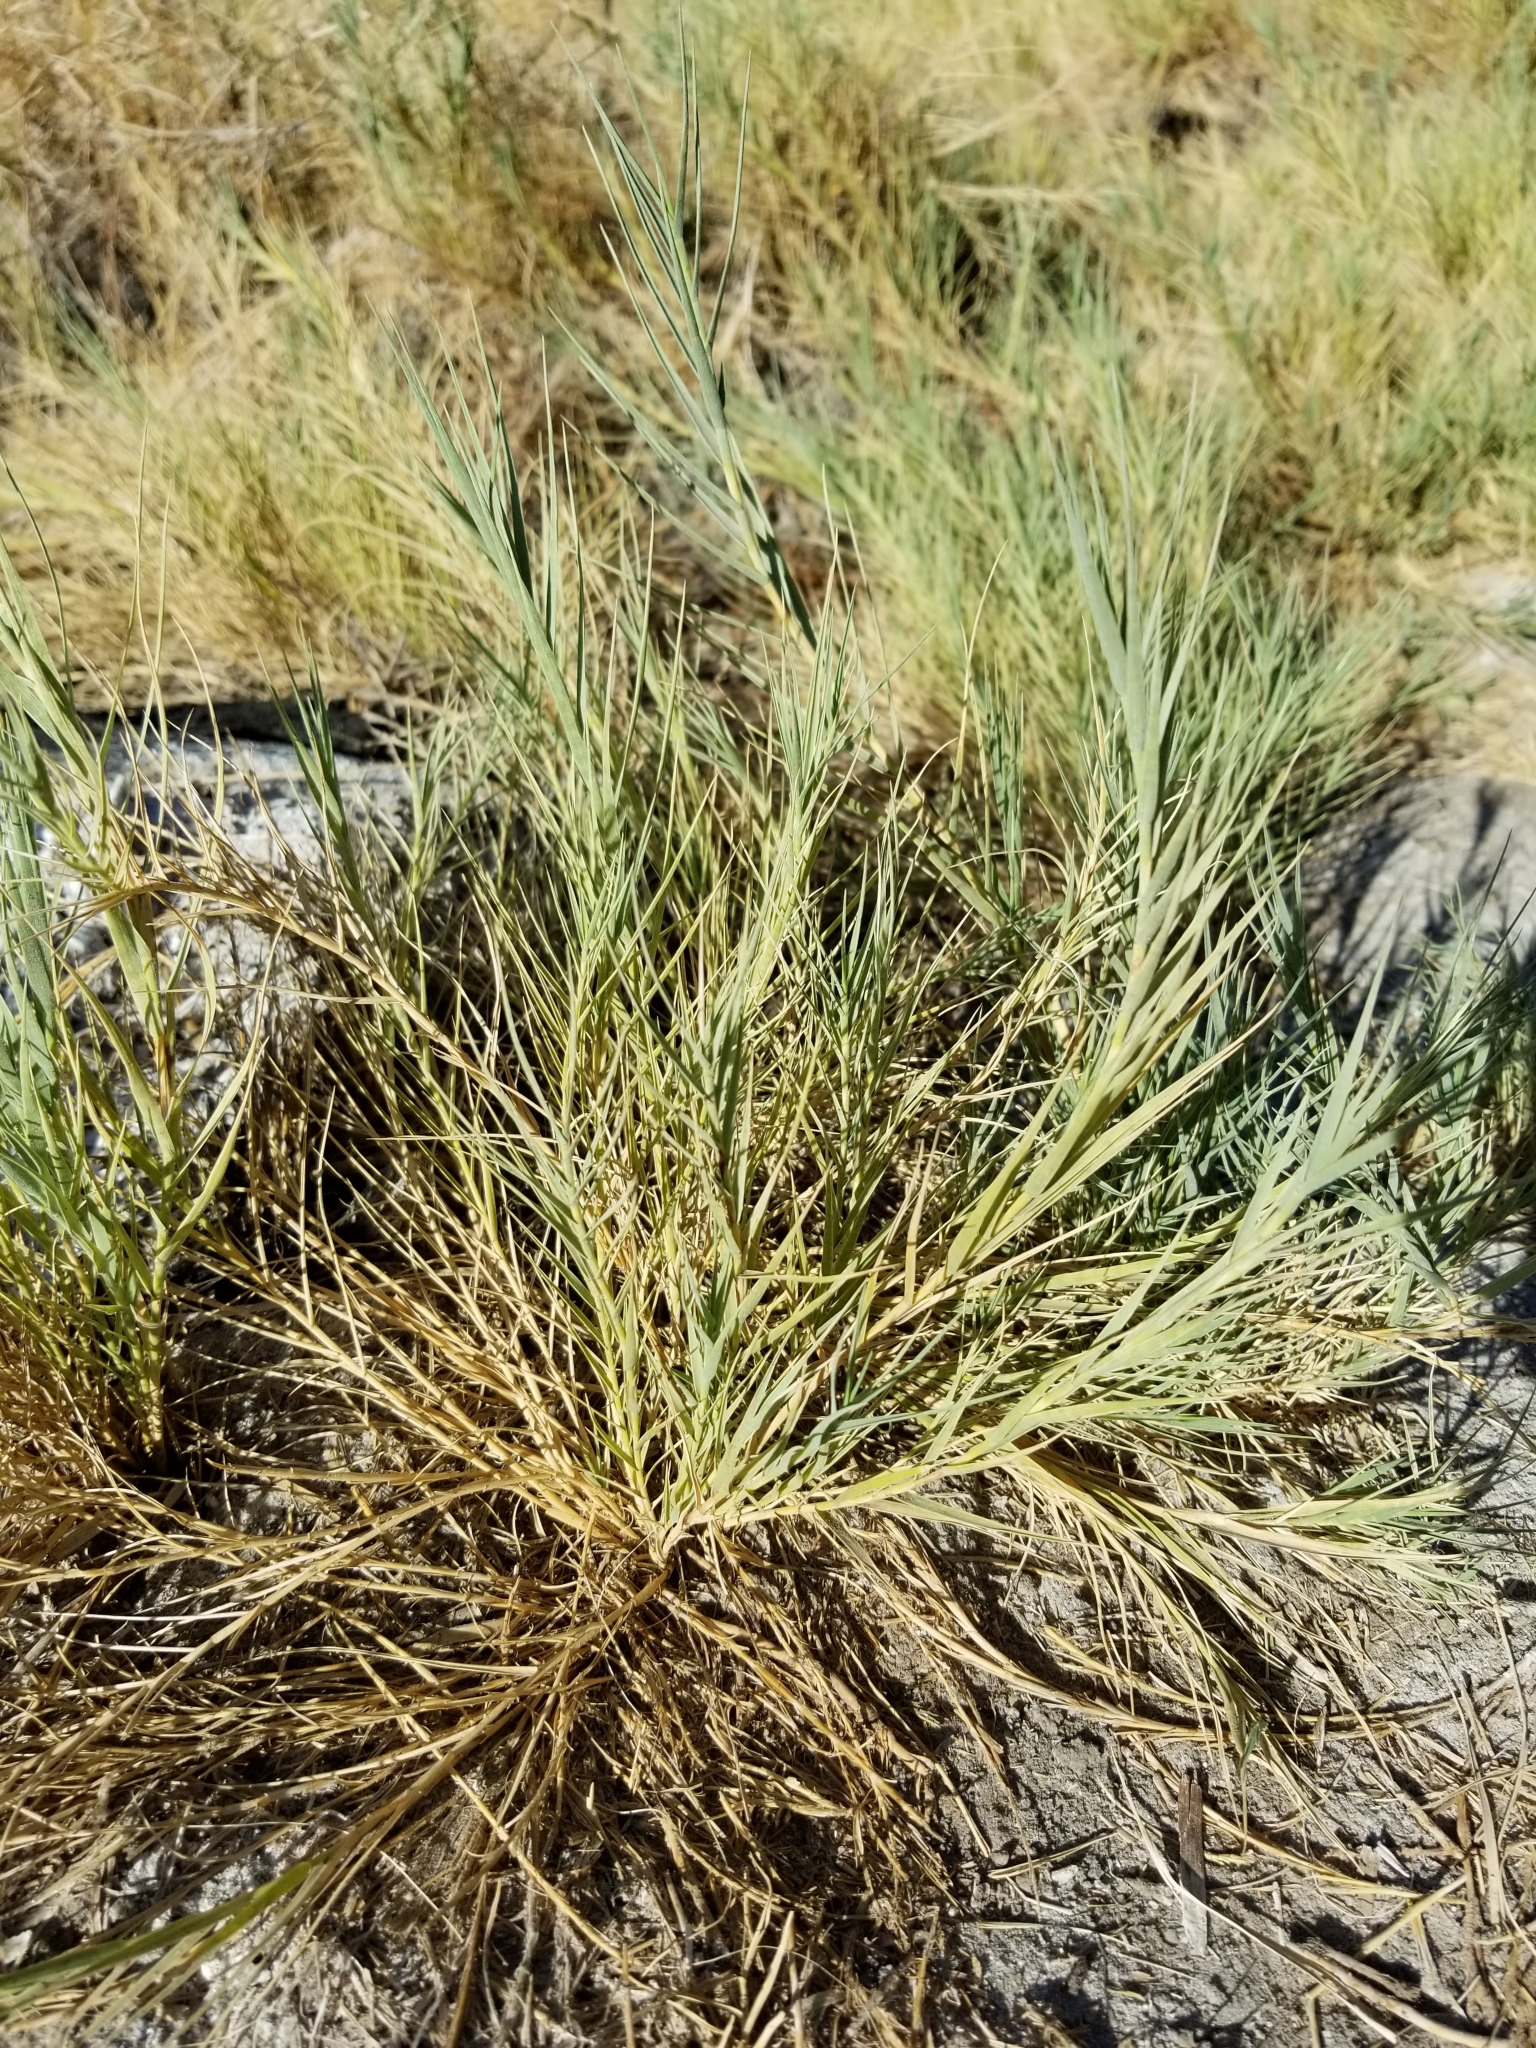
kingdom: Plantae
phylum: Tracheophyta
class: Liliopsida
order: Poales
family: Poaceae
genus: Distichlis
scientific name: Distichlis spicata
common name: Saltgrass
